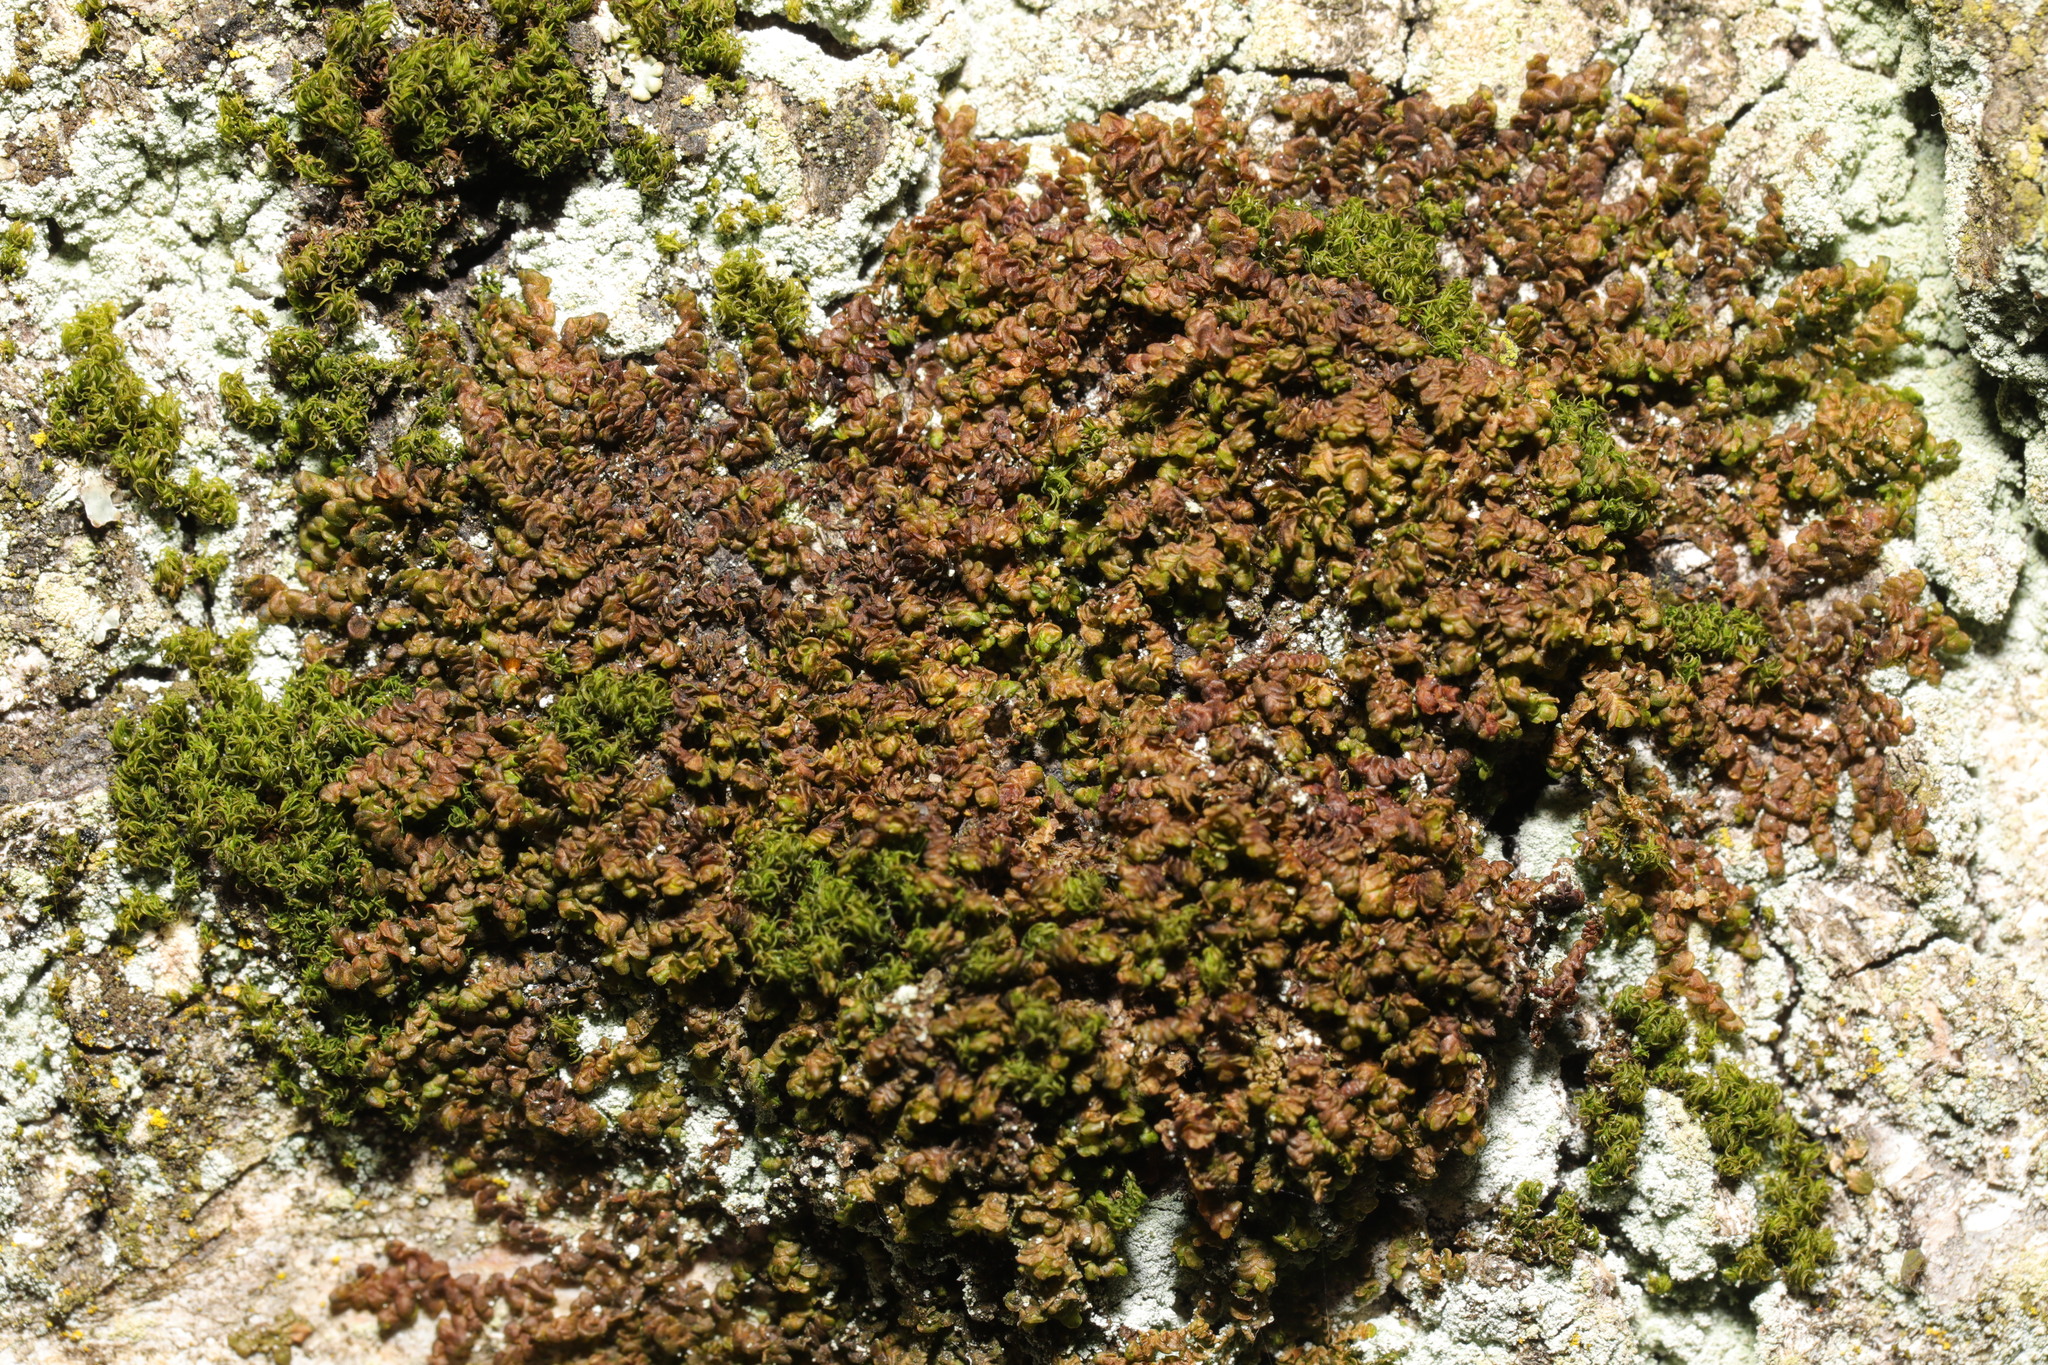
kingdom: Plantae
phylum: Marchantiophyta
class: Jungermanniopsida
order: Porellales
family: Frullaniaceae
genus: Frullania
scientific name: Frullania dilatata
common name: Dilated scalewort
